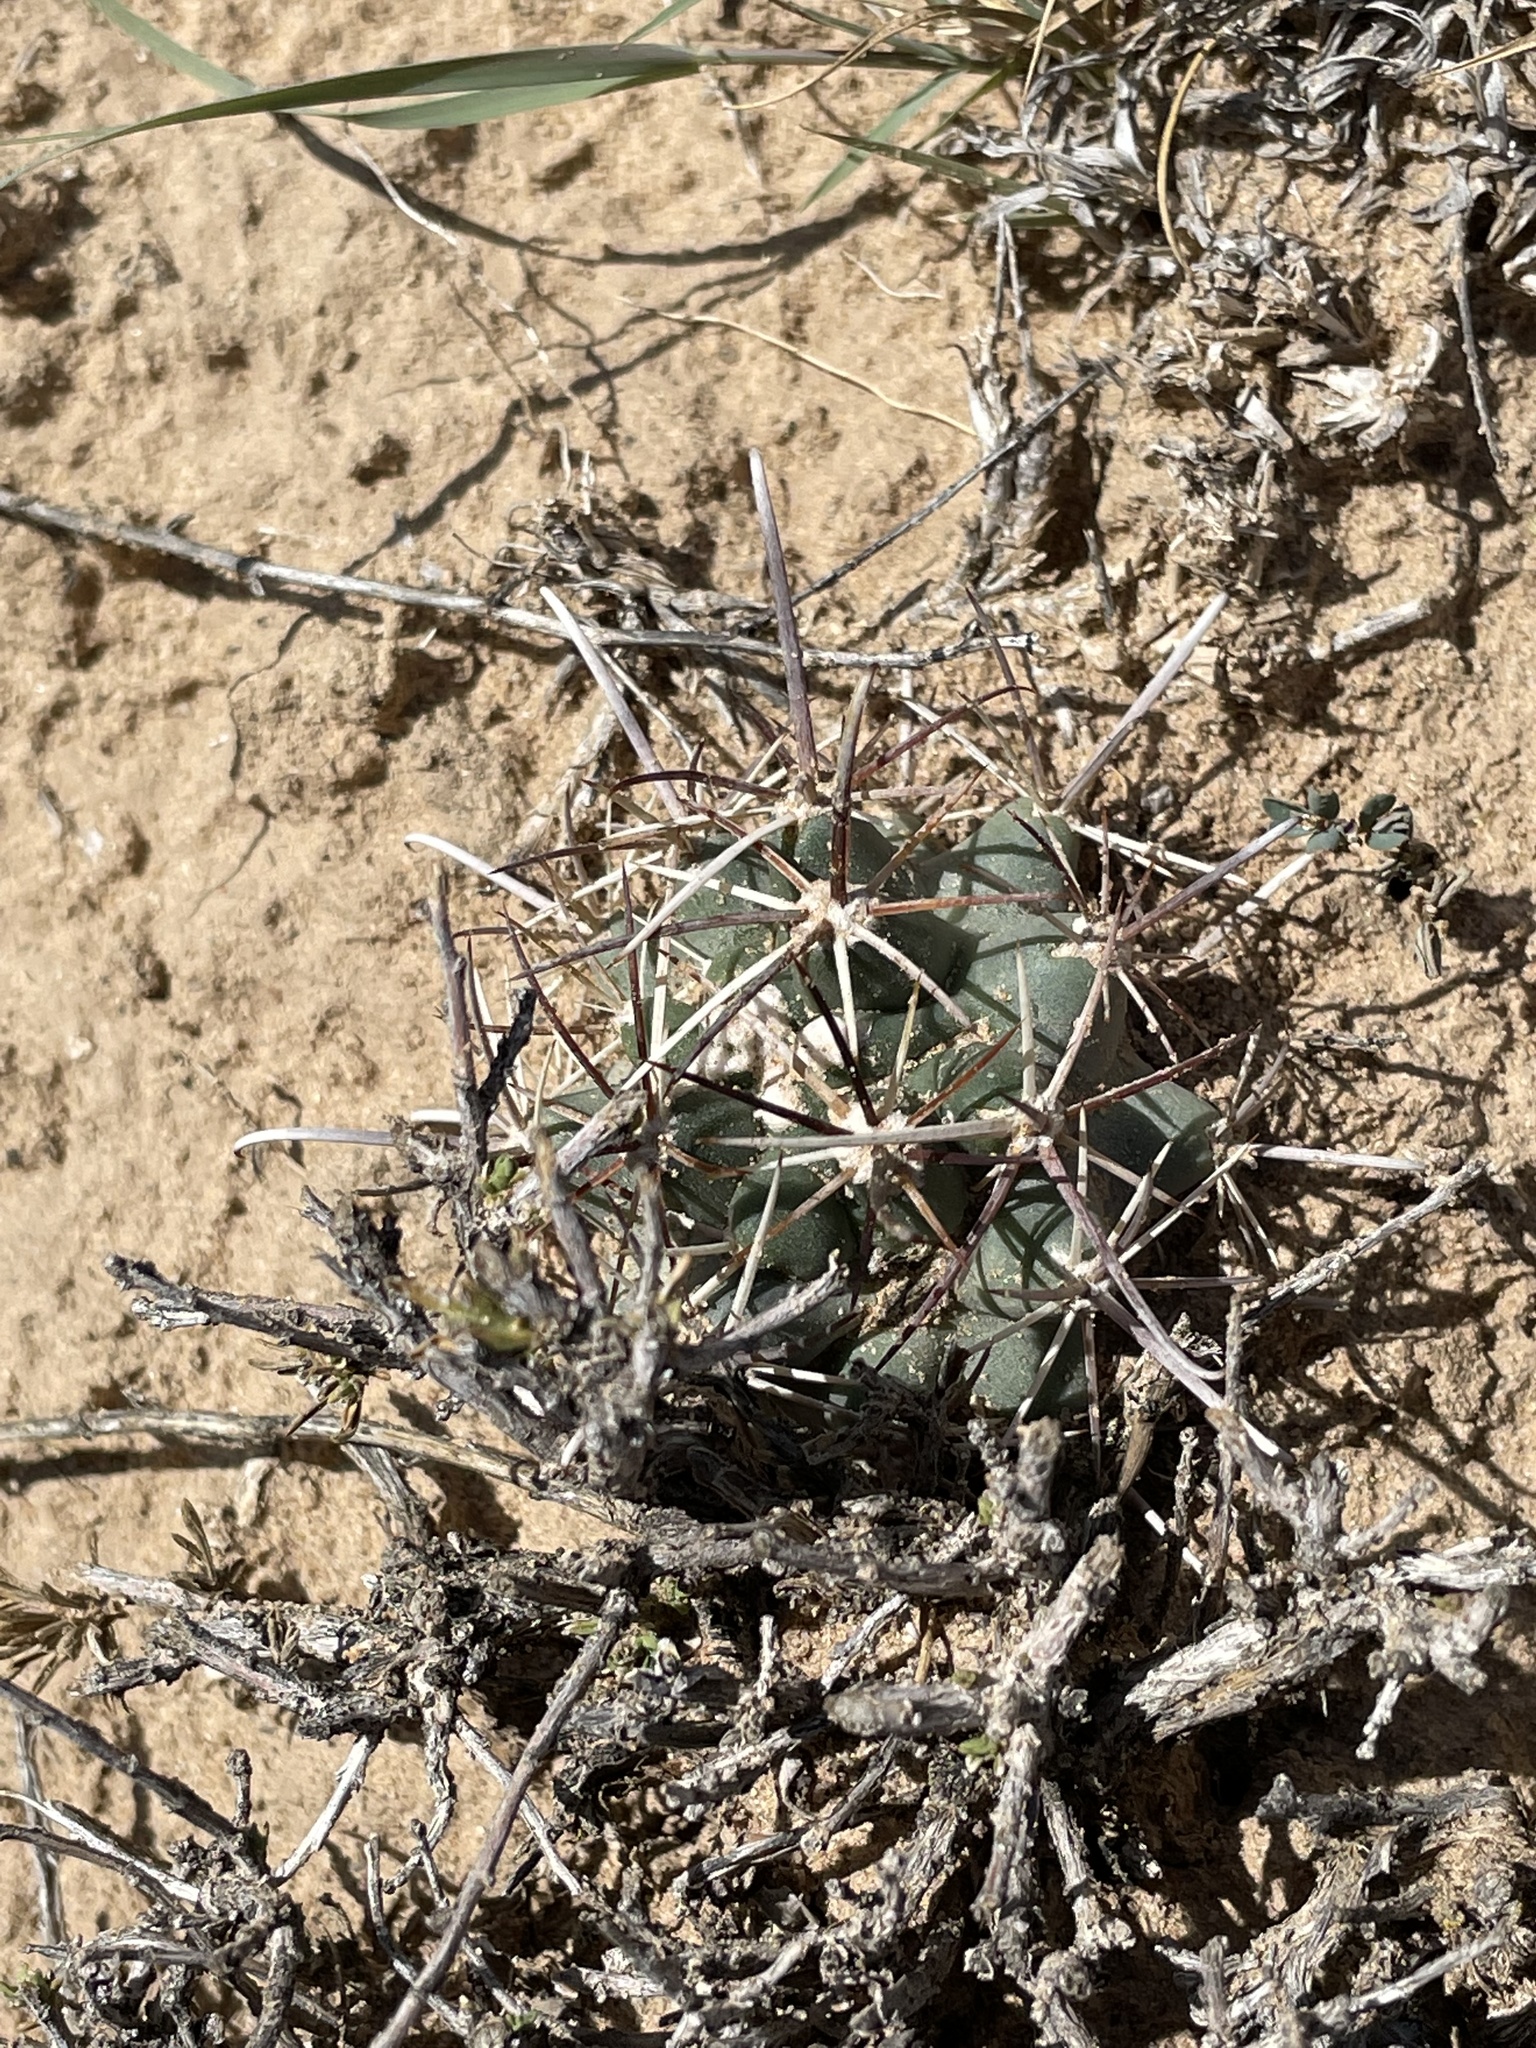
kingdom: Plantae
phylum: Tracheophyta
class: Magnoliopsida
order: Caryophyllales
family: Cactaceae
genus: Sclerocactus
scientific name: Sclerocactus cloverae
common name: Clover's eagle-claw cactus
